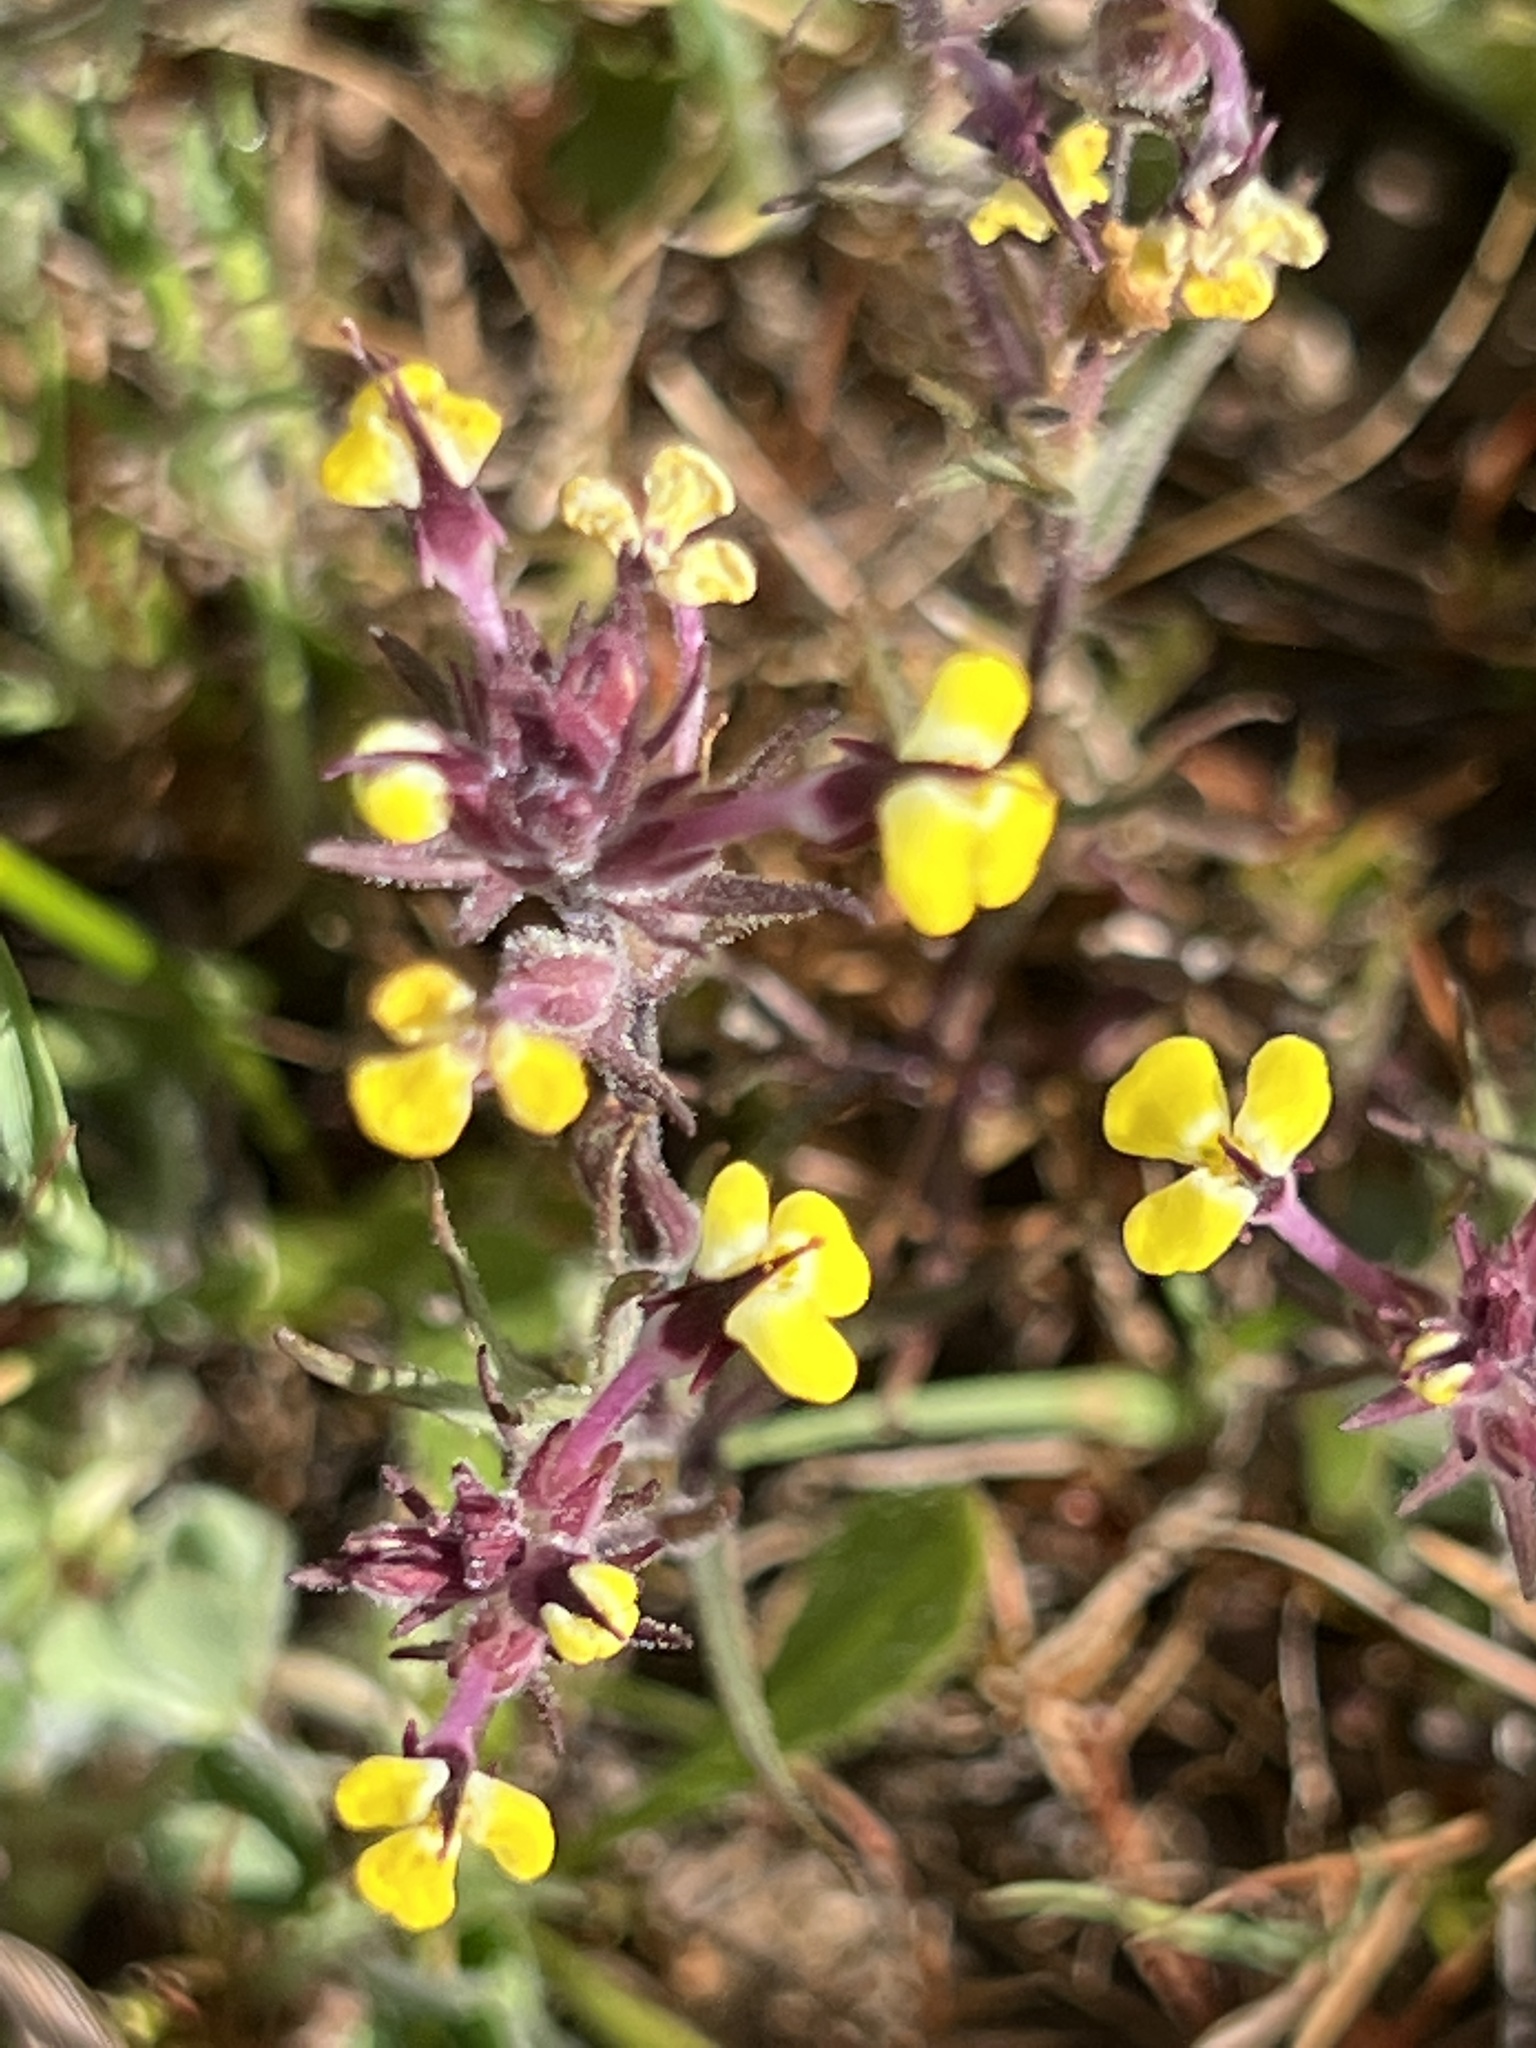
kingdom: Plantae
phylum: Tracheophyta
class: Magnoliopsida
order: Lamiales
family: Orobanchaceae
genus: Triphysaria
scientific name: Triphysaria eriantha
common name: Johnny-tuck
